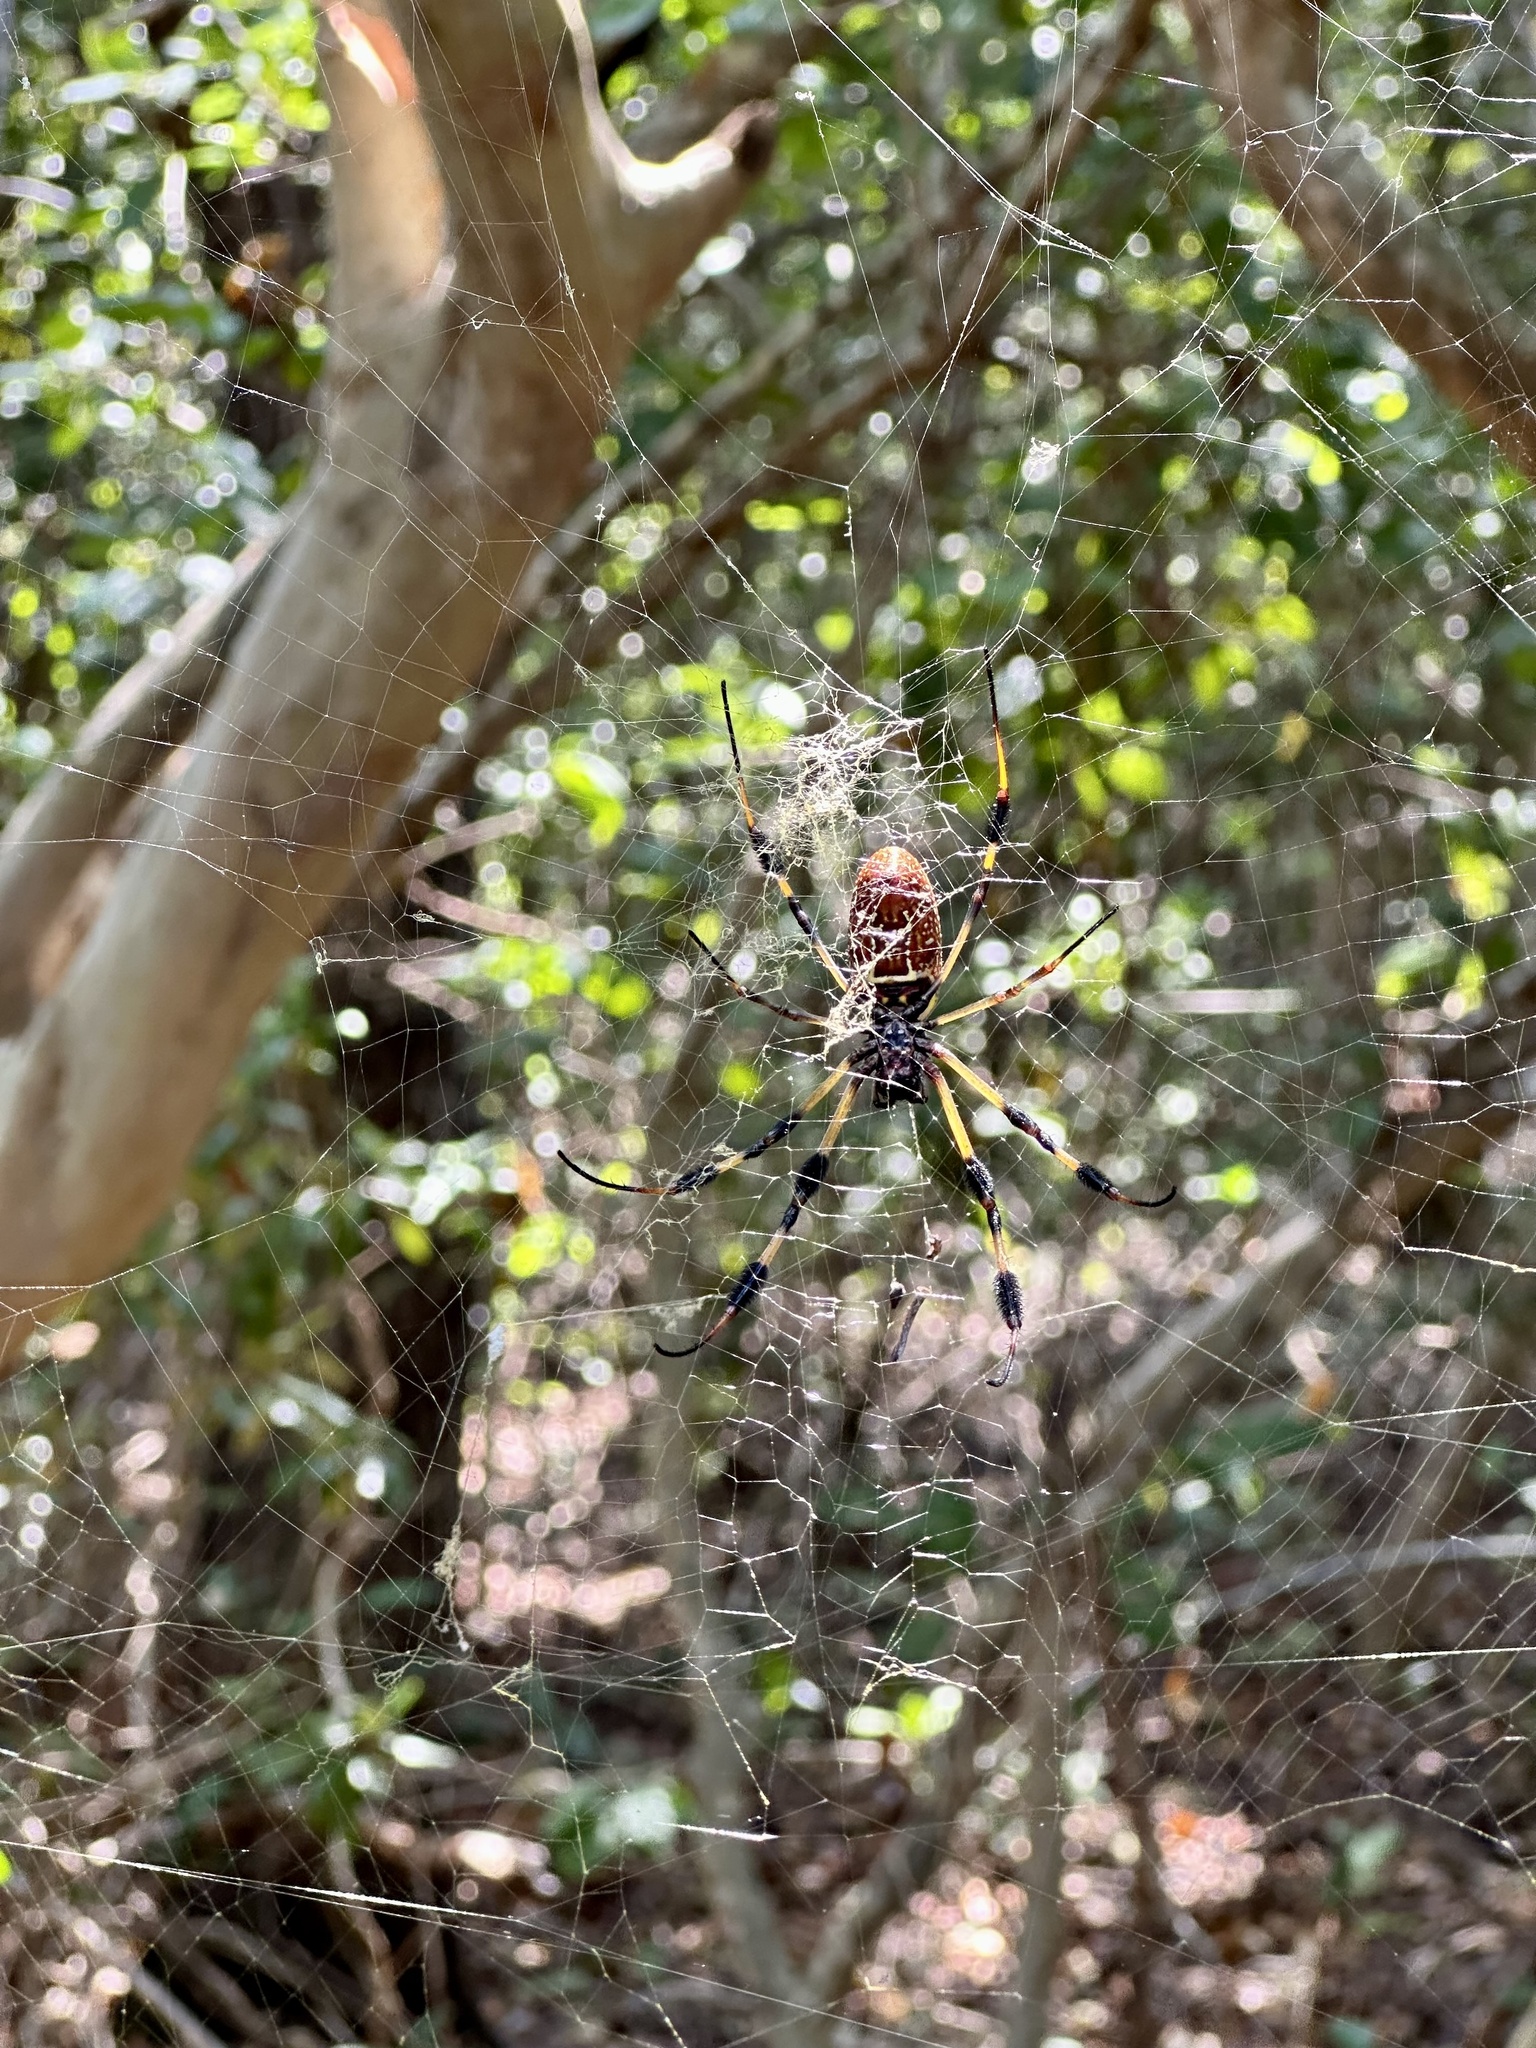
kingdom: Animalia
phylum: Arthropoda
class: Arachnida
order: Araneae
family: Araneidae
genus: Trichonephila
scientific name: Trichonephila clavipes
